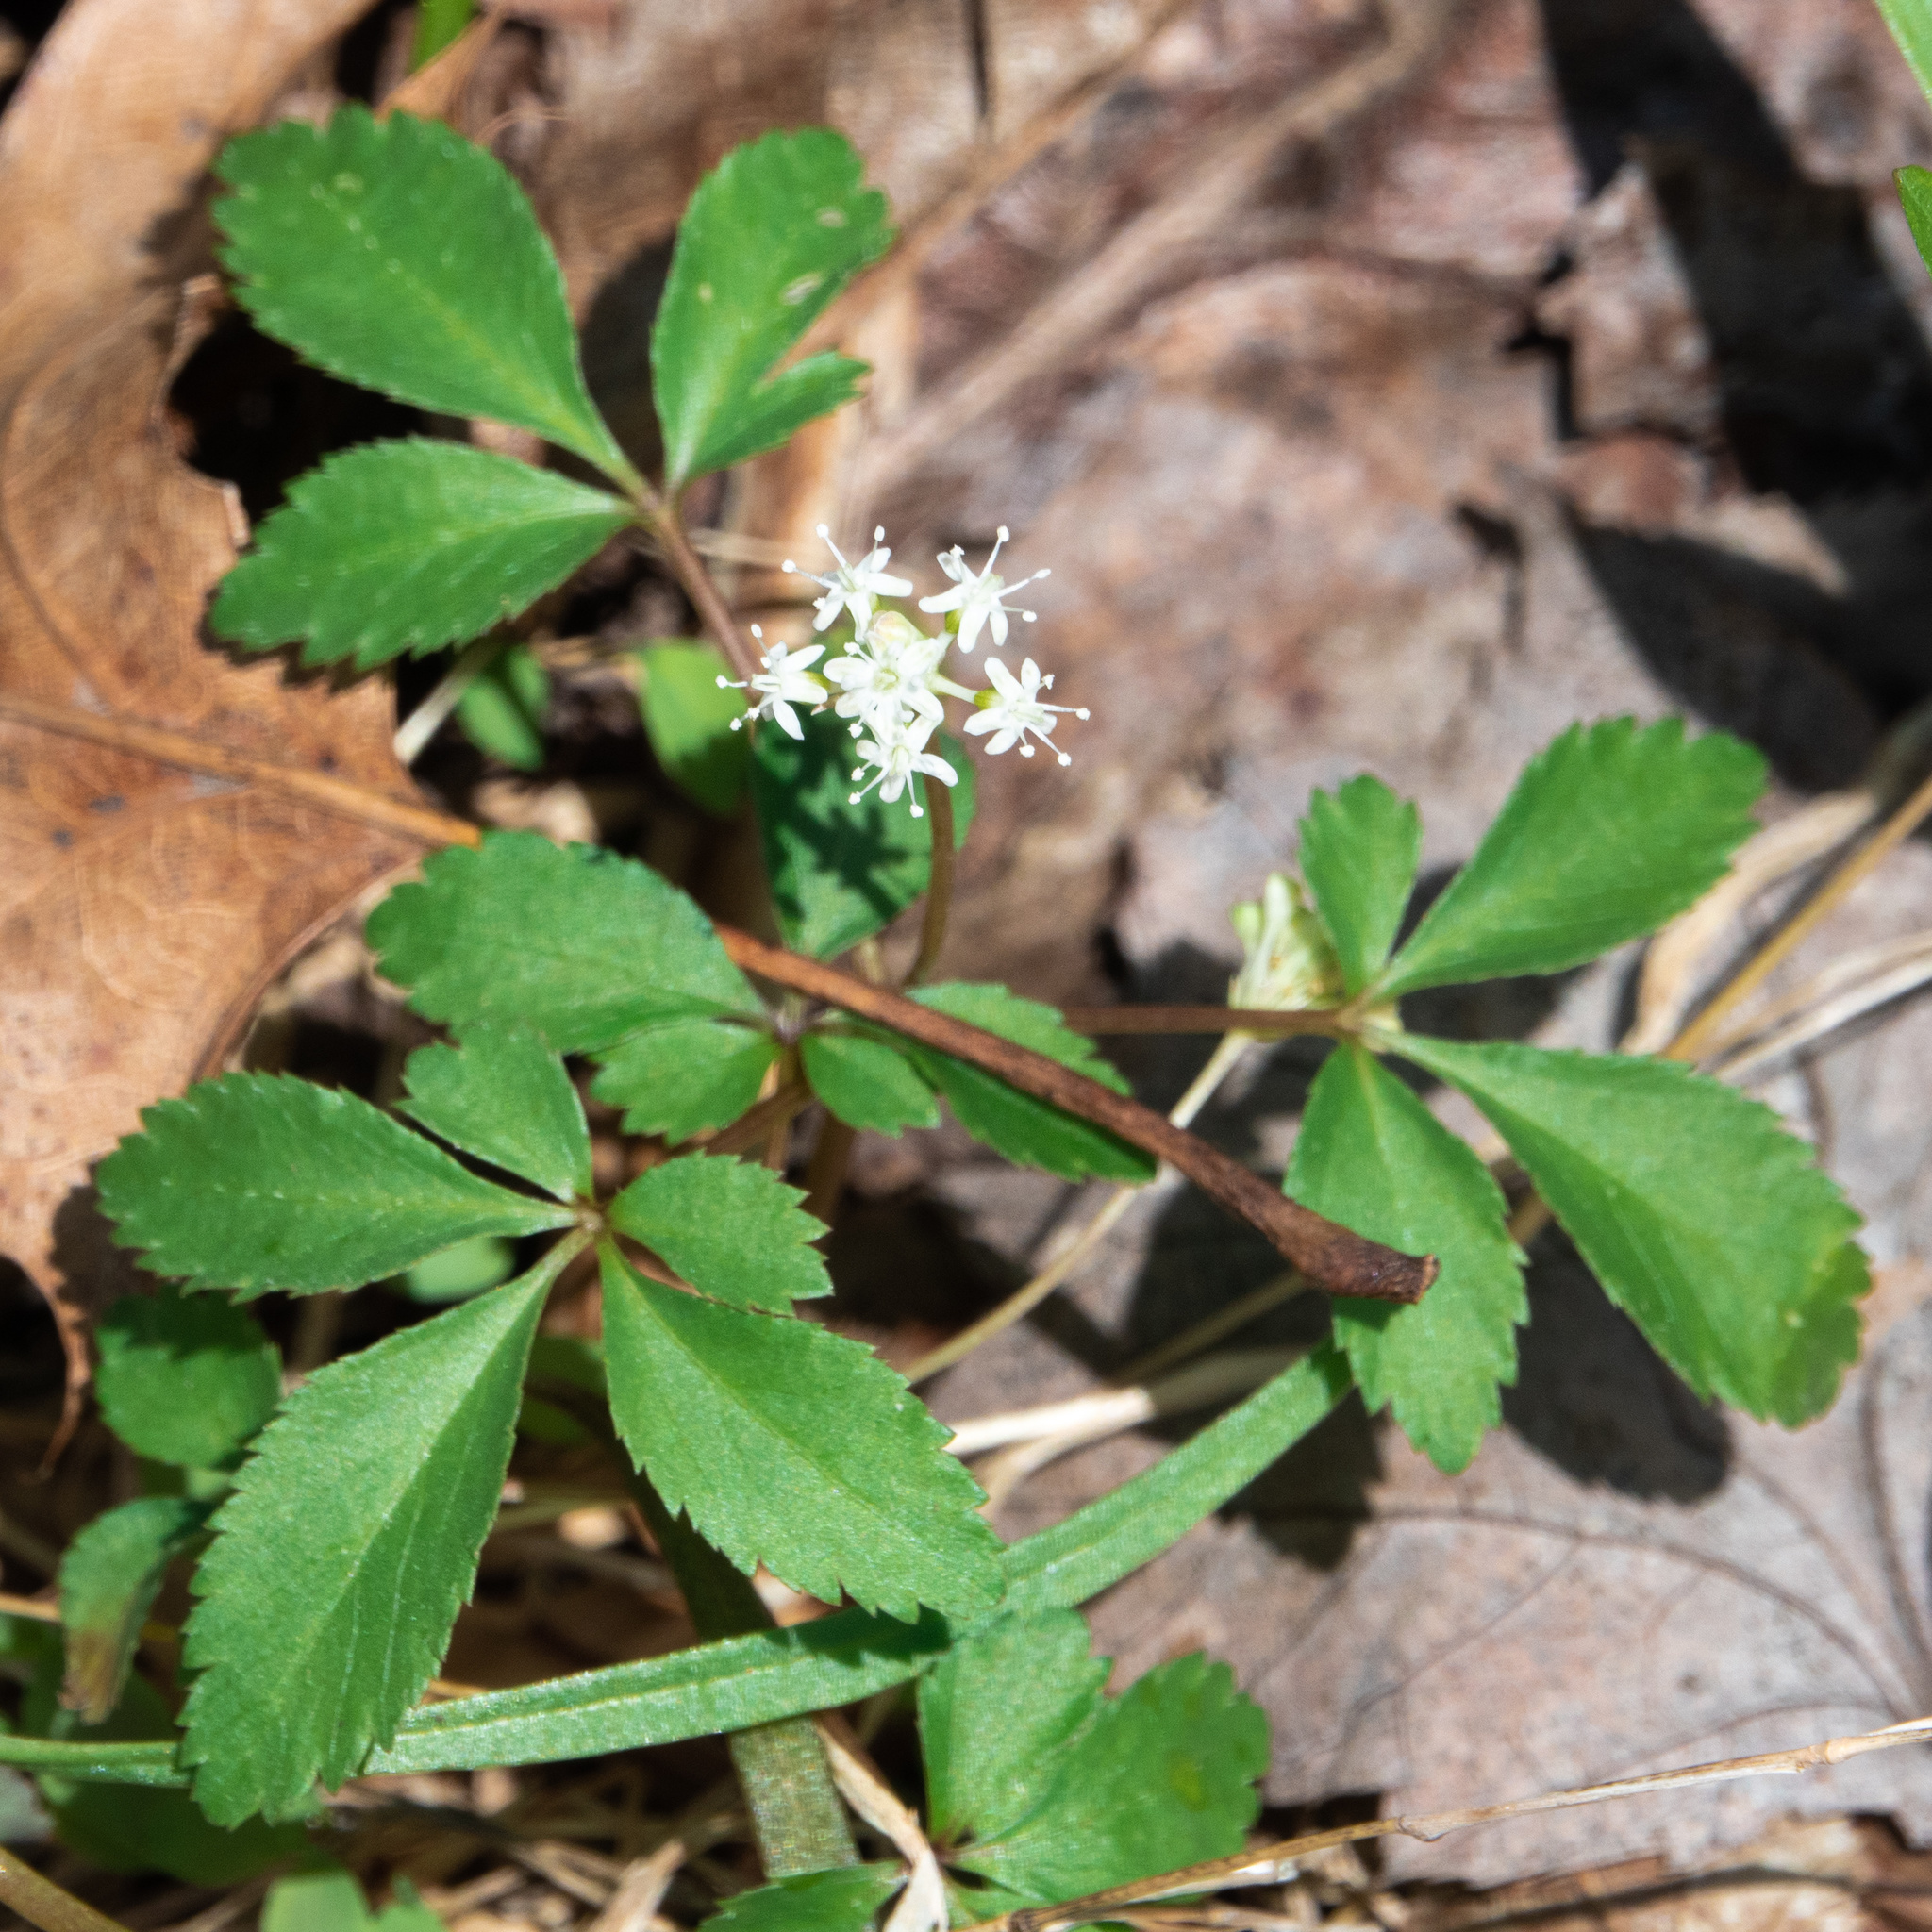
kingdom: Plantae
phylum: Tracheophyta
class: Magnoliopsida
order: Apiales
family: Araliaceae
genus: Panax
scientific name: Panax trifolius
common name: Dwarf ginseng
